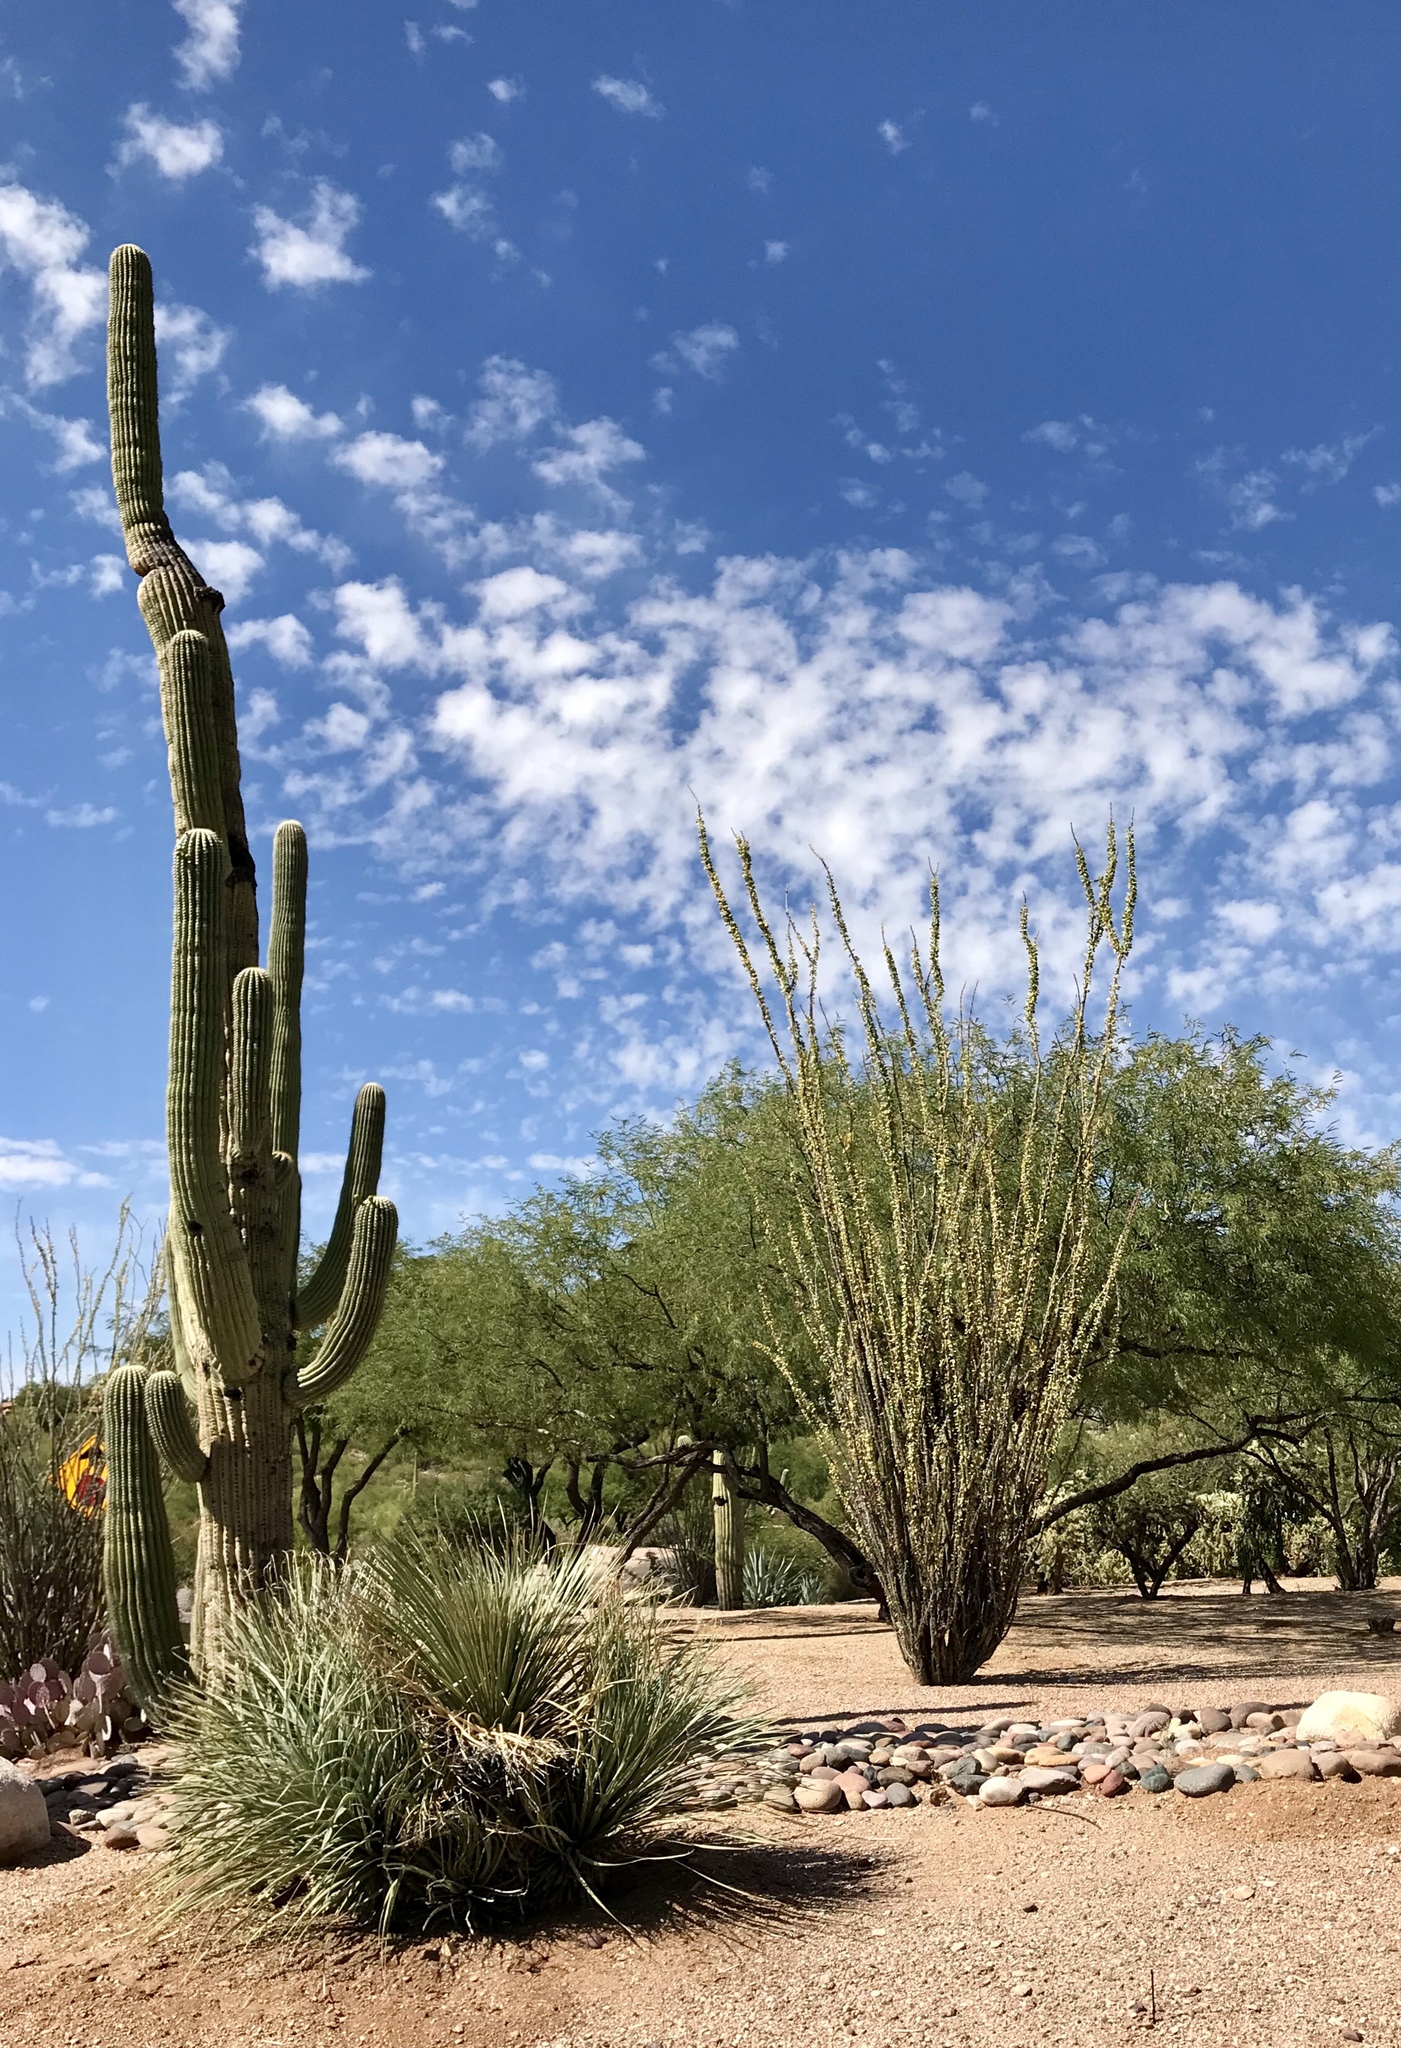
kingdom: Plantae
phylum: Tracheophyta
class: Magnoliopsida
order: Ericales
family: Fouquieriaceae
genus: Fouquieria
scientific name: Fouquieria splendens
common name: Vine-cactus
